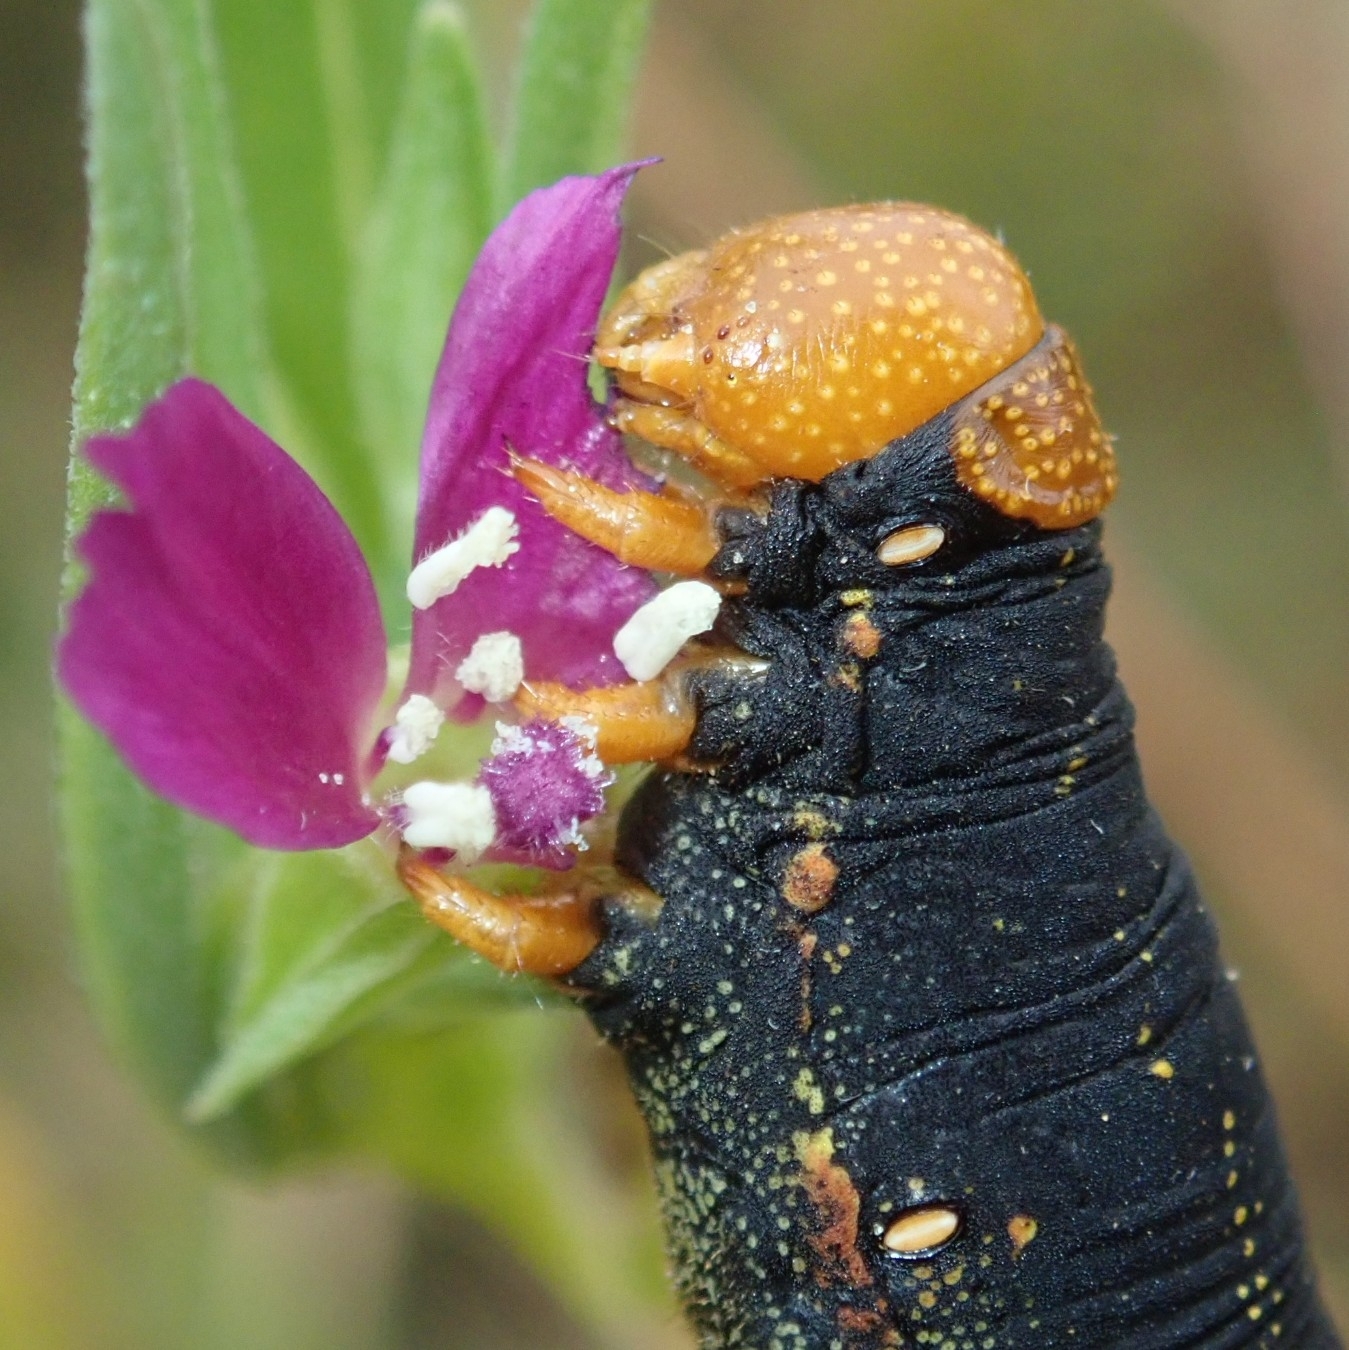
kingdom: Animalia
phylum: Arthropoda
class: Insecta
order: Lepidoptera
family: Sphingidae
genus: Hyles
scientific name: Hyles lineata
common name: White-lined sphinx
